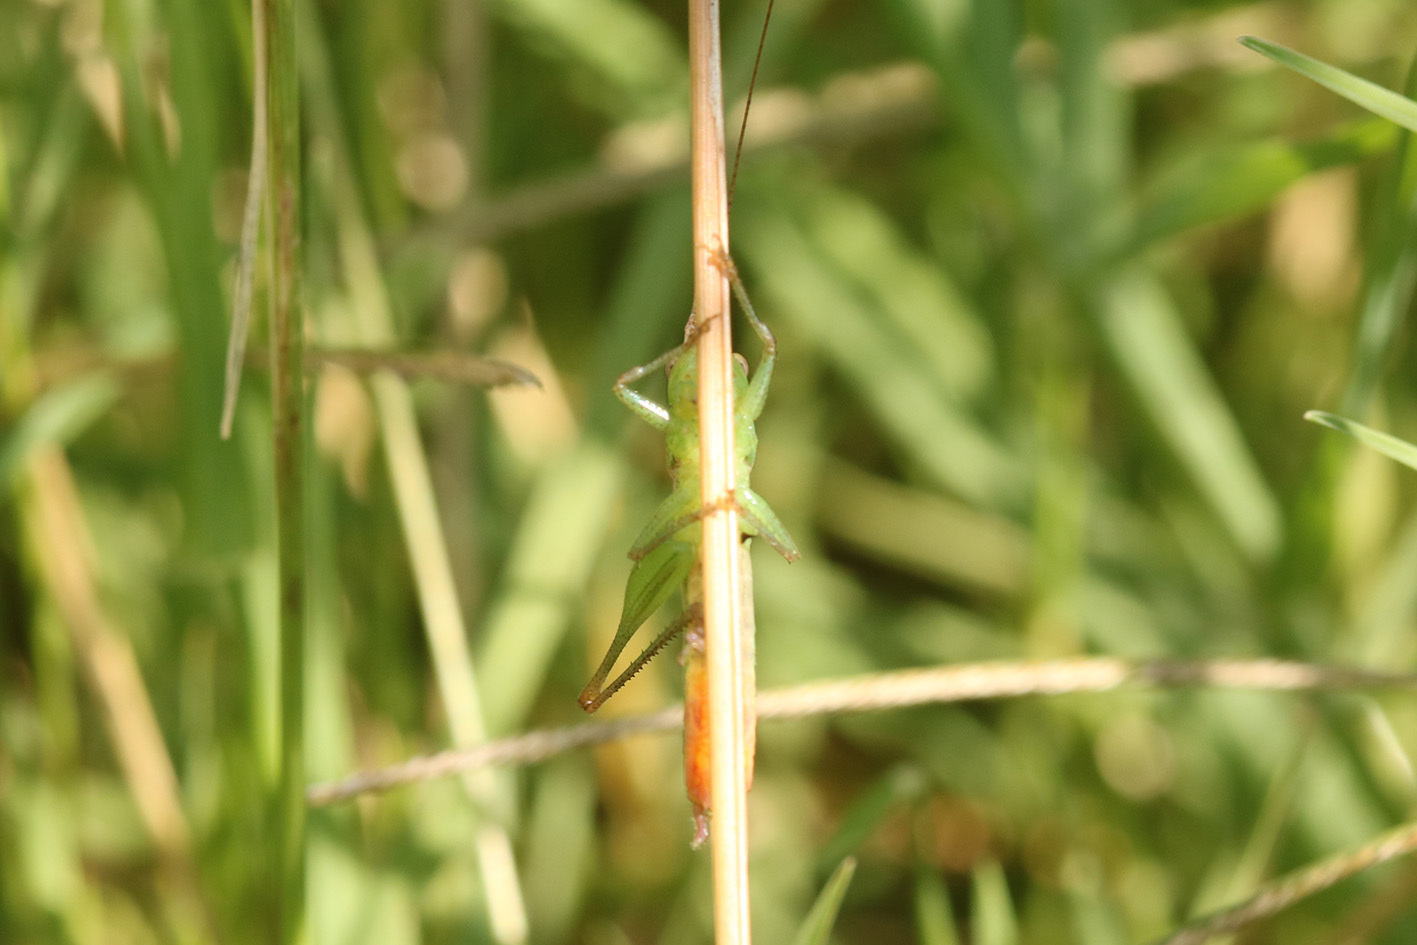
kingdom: Animalia
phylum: Arthropoda
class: Insecta
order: Orthoptera
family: Tettigoniidae
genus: Conocephalus
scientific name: Conocephalus doryphorus
